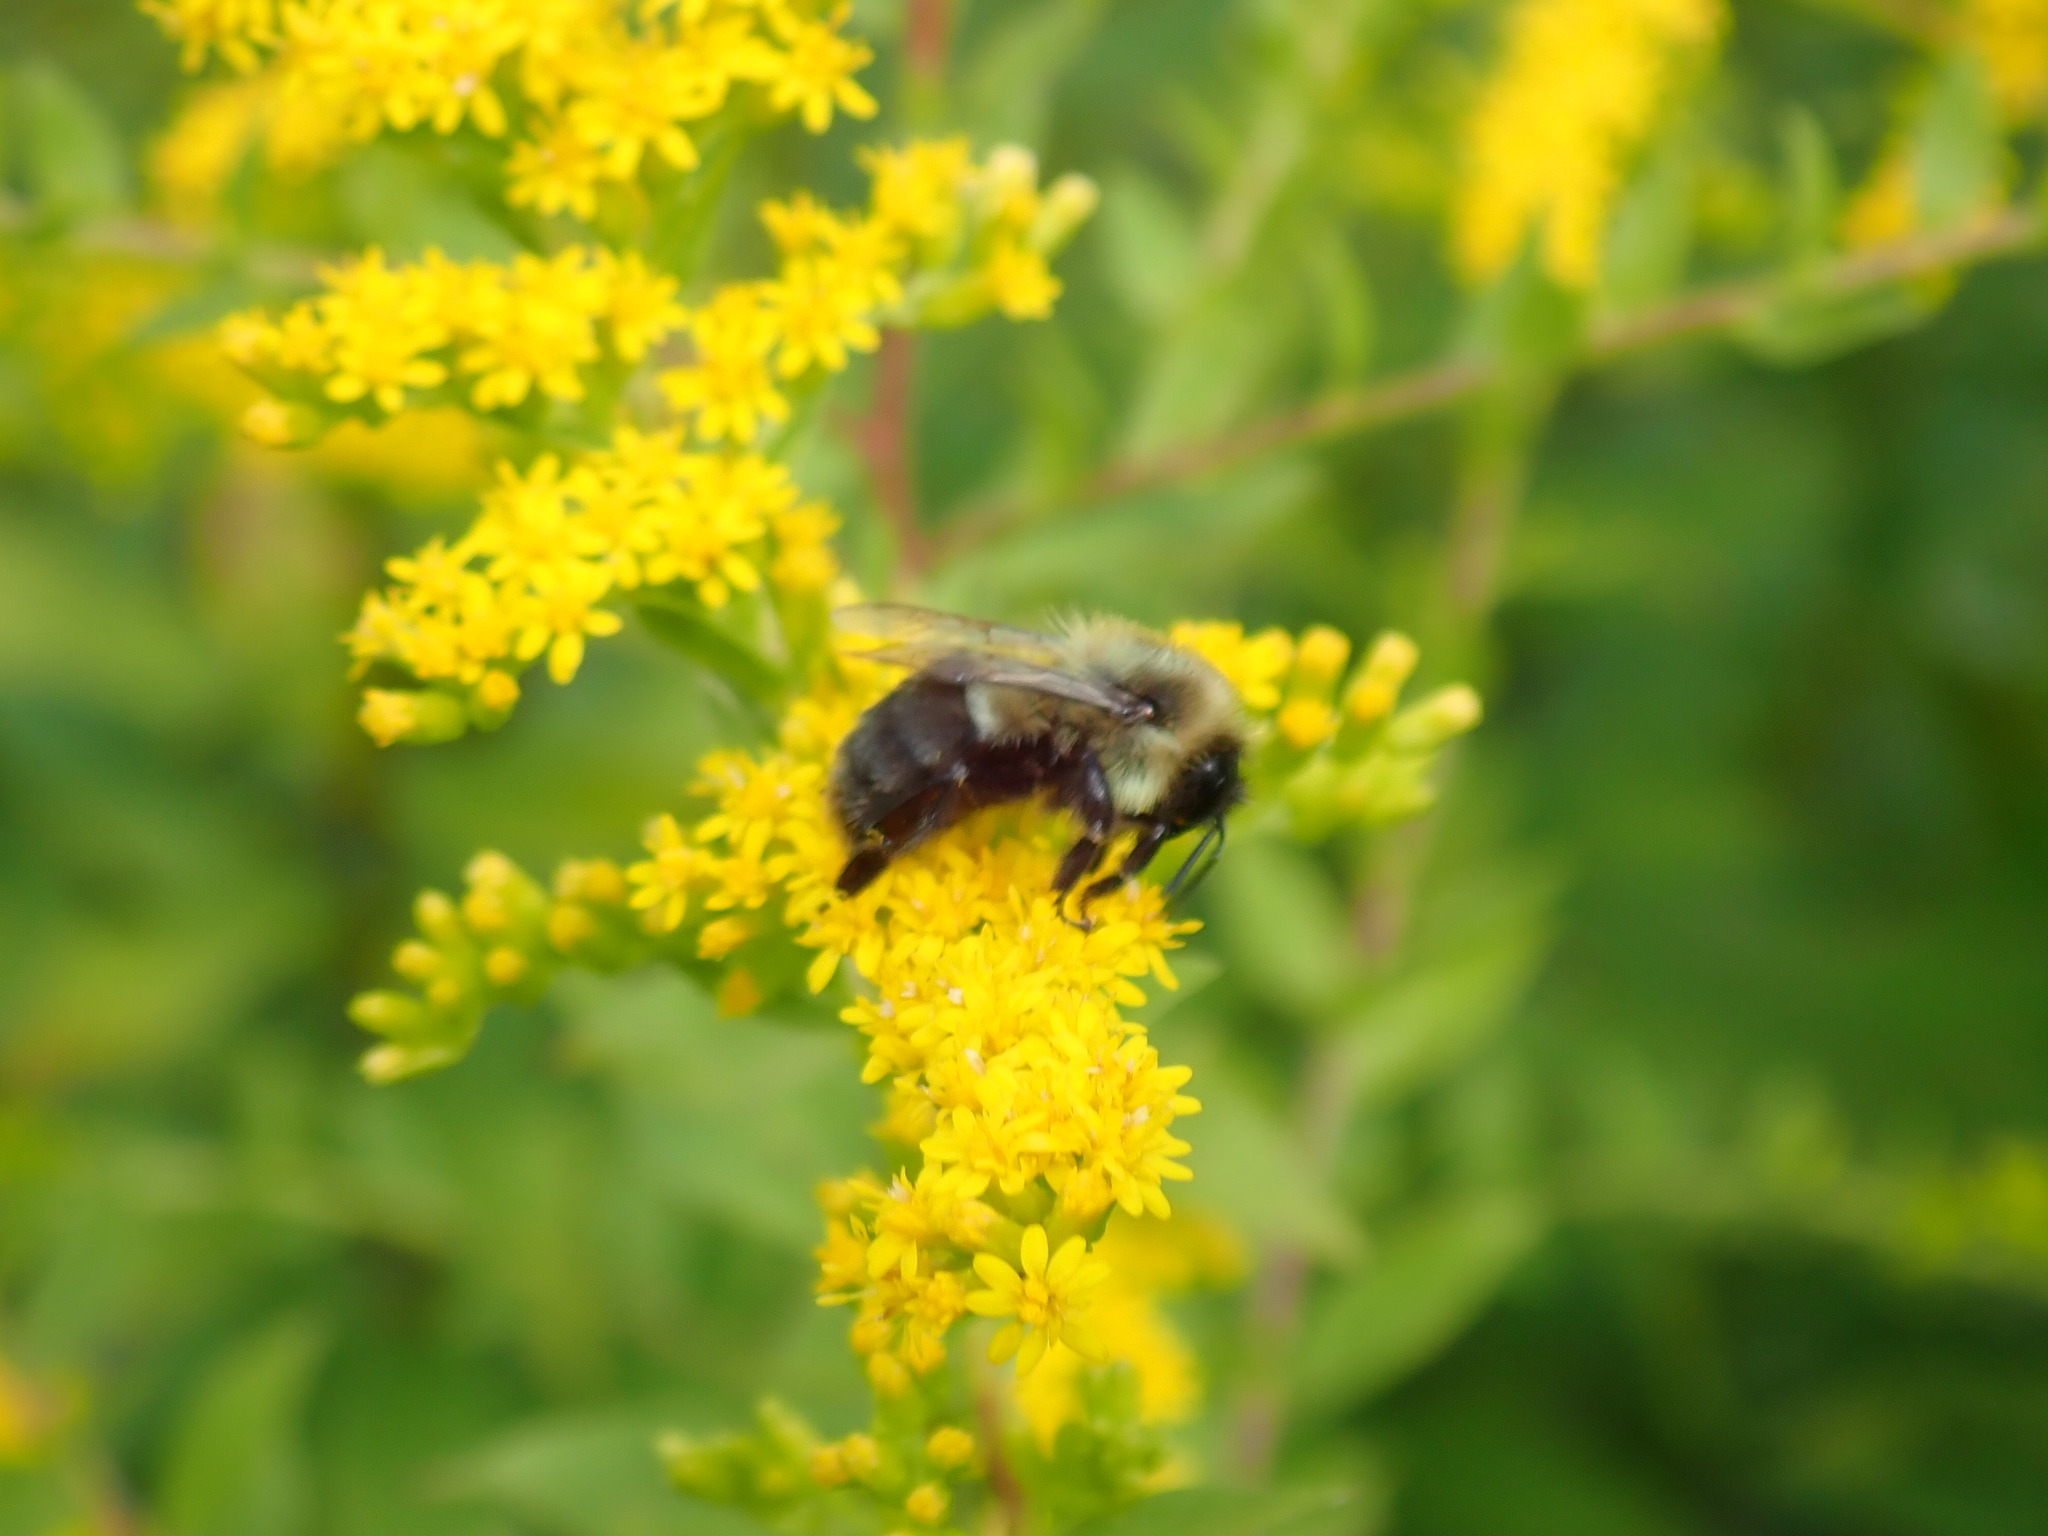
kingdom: Animalia
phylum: Arthropoda
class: Insecta
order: Hymenoptera
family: Apidae
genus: Bombus
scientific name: Bombus impatiens
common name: Common eastern bumble bee
